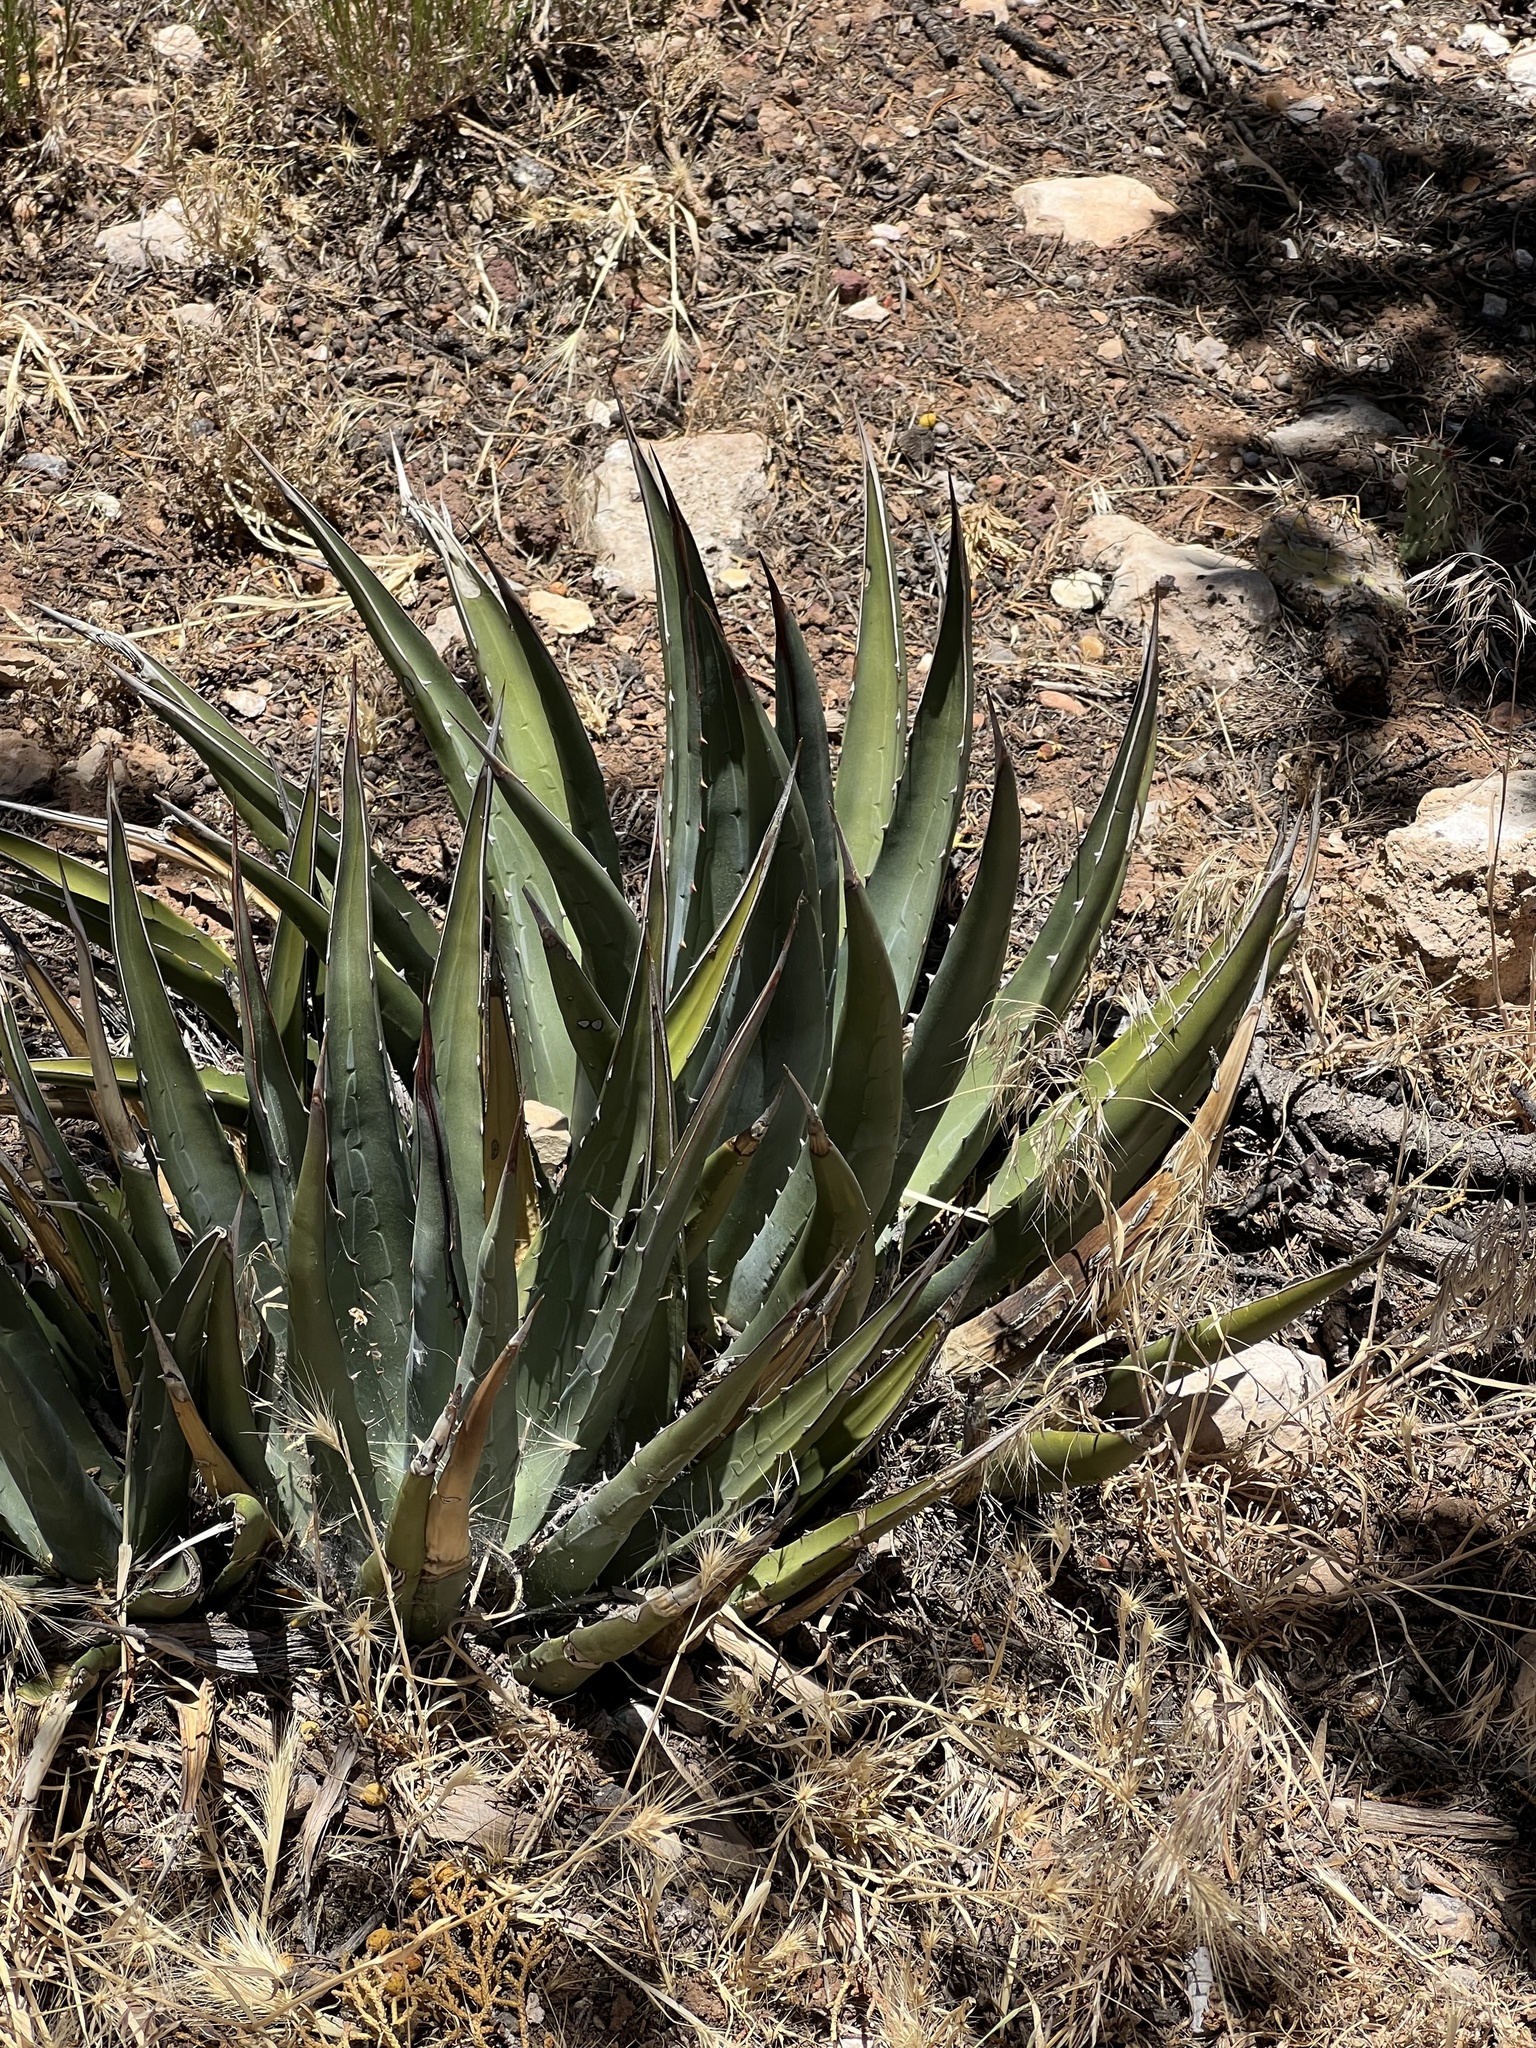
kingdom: Plantae
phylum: Tracheophyta
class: Liliopsida
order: Asparagales
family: Asparagaceae
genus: Agave
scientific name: Agave utahensis
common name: Utah agave
